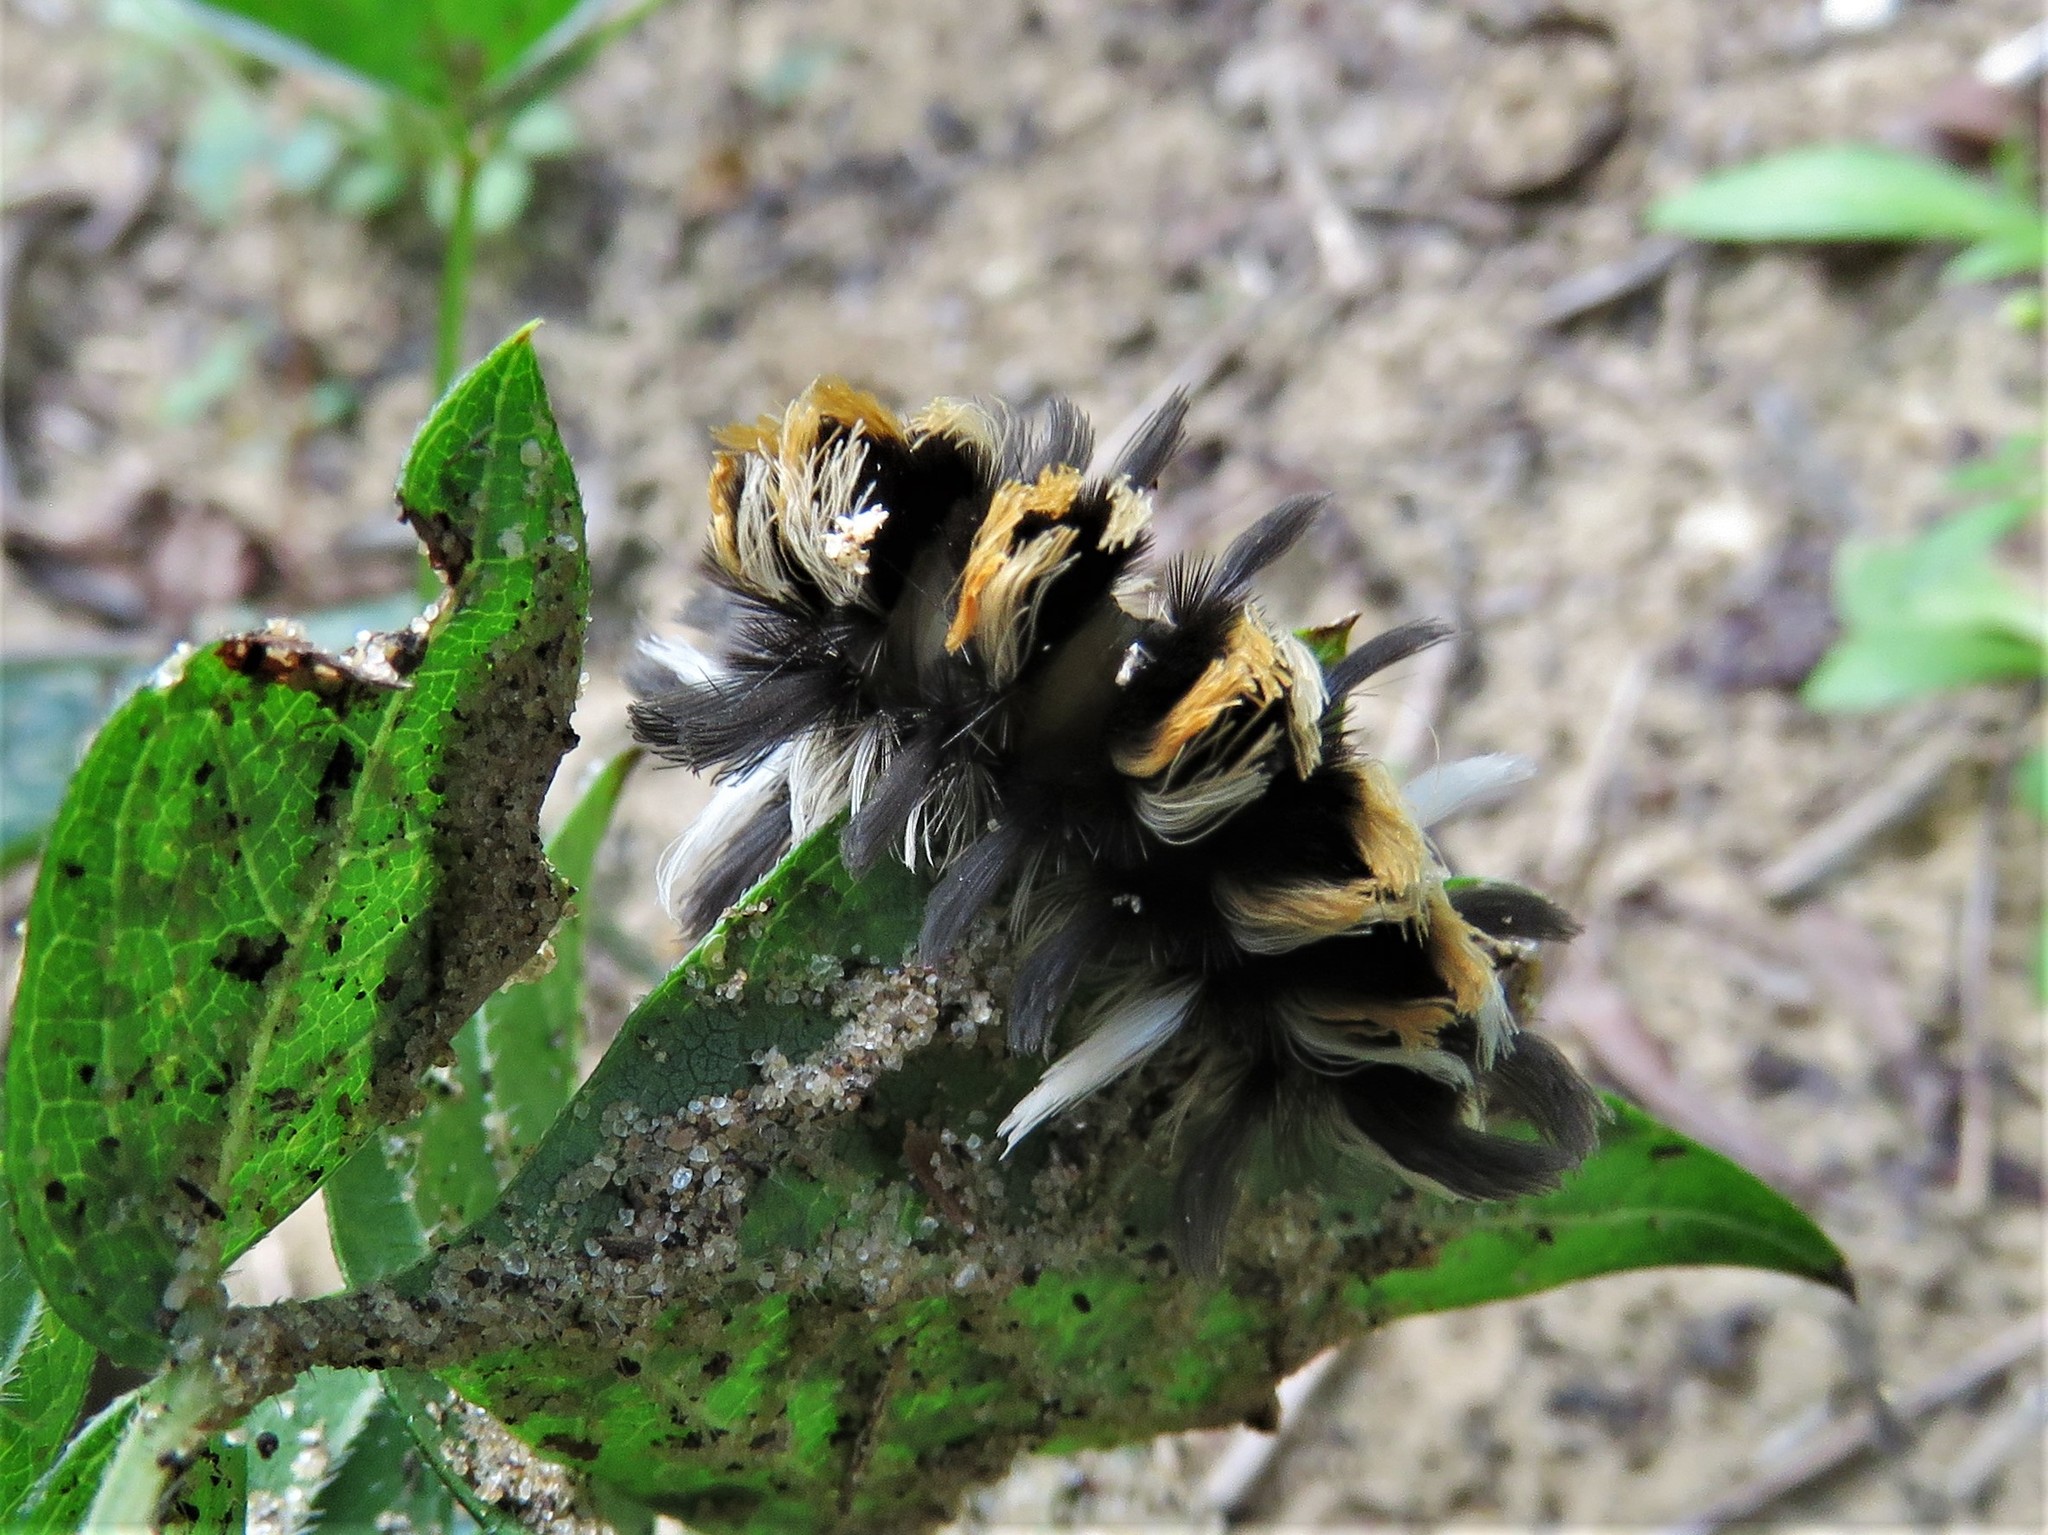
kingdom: Animalia
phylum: Arthropoda
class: Insecta
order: Lepidoptera
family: Erebidae
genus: Euchaetes
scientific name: Euchaetes egle
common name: Milkweed tussock moth
